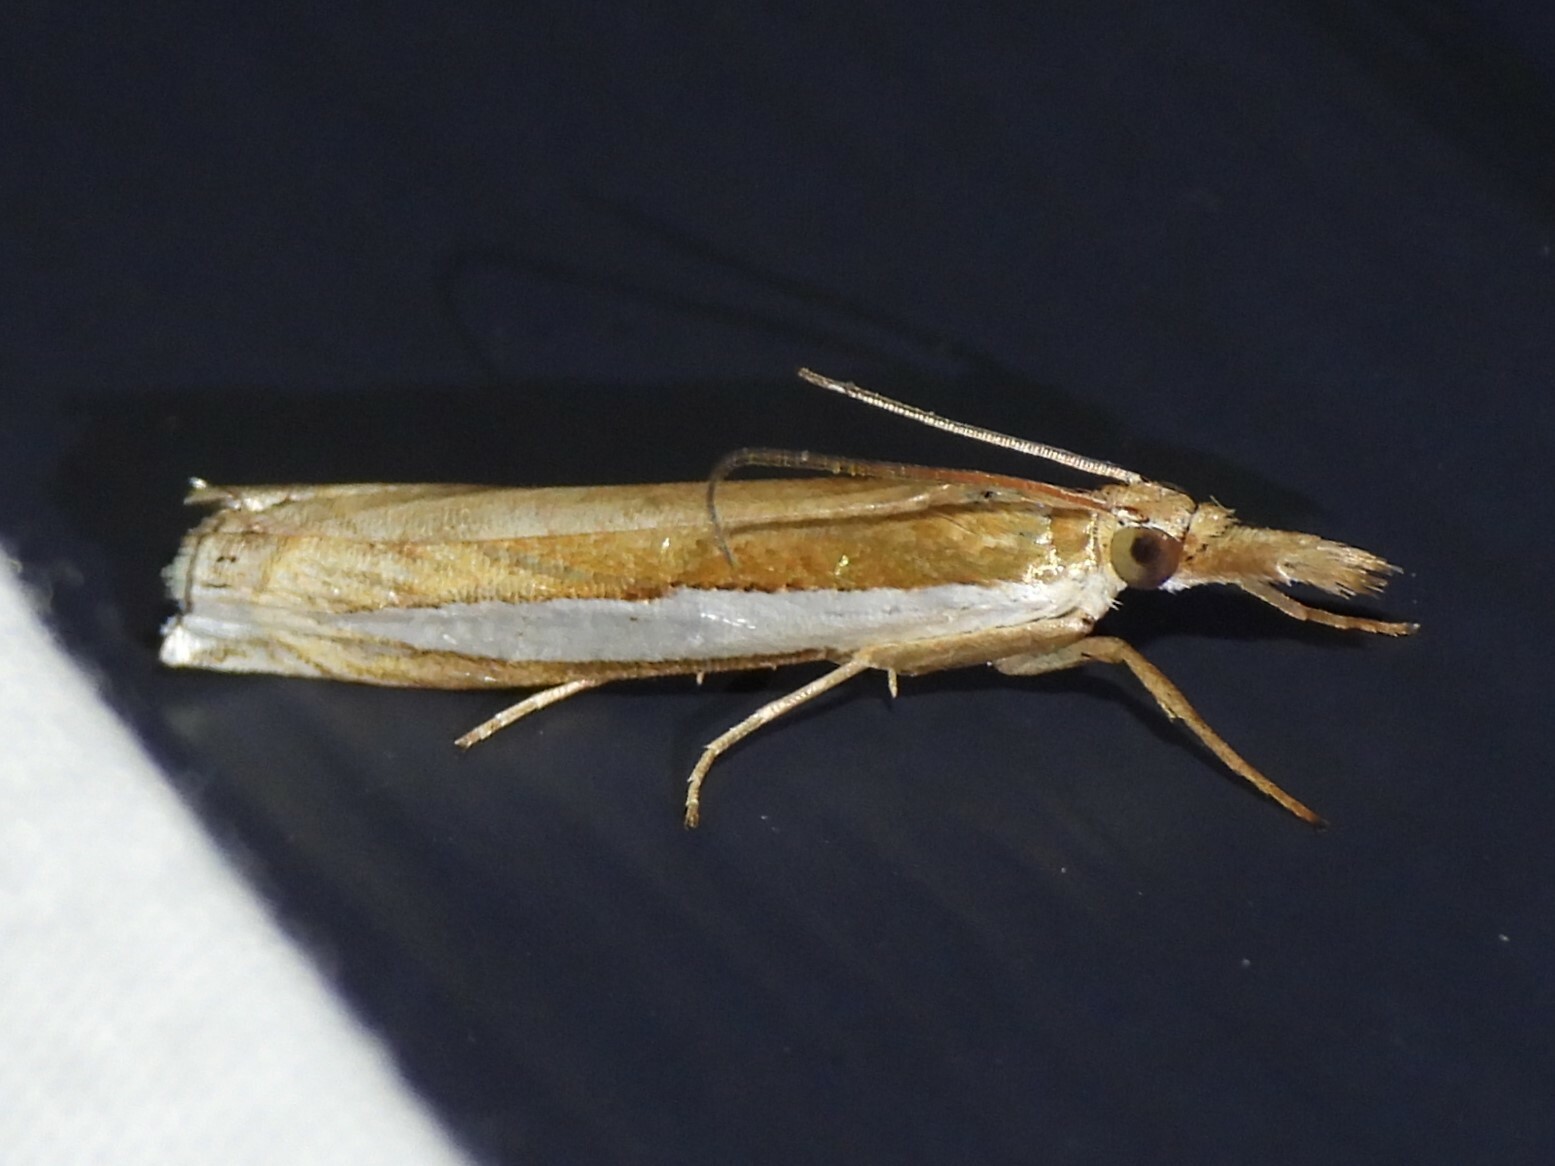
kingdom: Animalia
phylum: Arthropoda
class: Insecta
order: Lepidoptera
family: Crambidae
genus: Crambus
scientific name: Crambus leachellus
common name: Leach's grass-veneer
